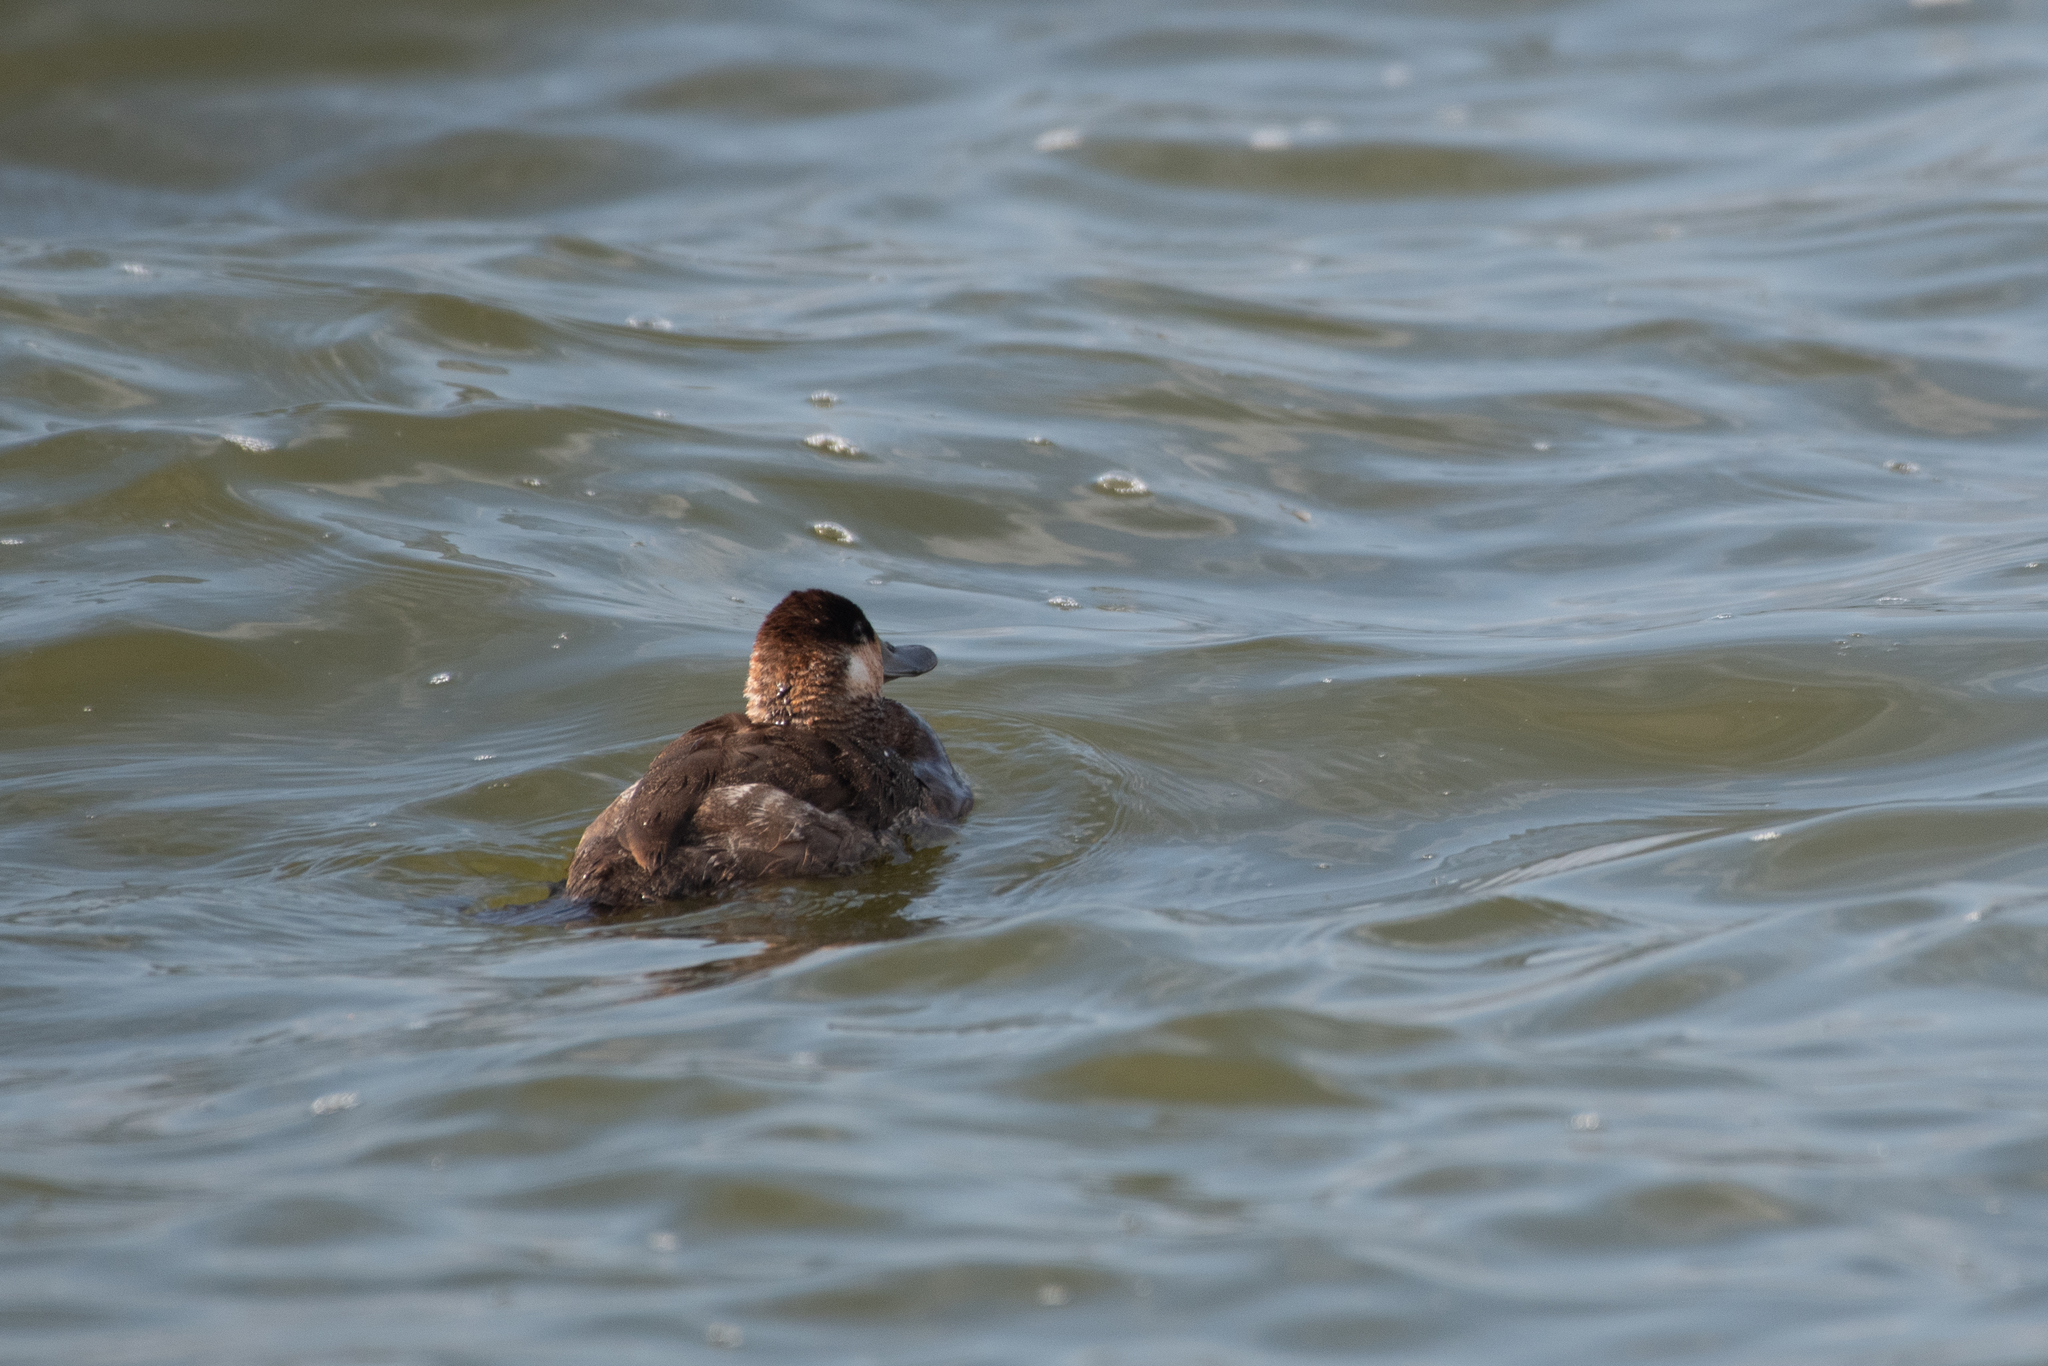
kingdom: Animalia
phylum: Chordata
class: Aves
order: Anseriformes
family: Anatidae
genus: Oxyura
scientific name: Oxyura jamaicensis
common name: Ruddy duck
